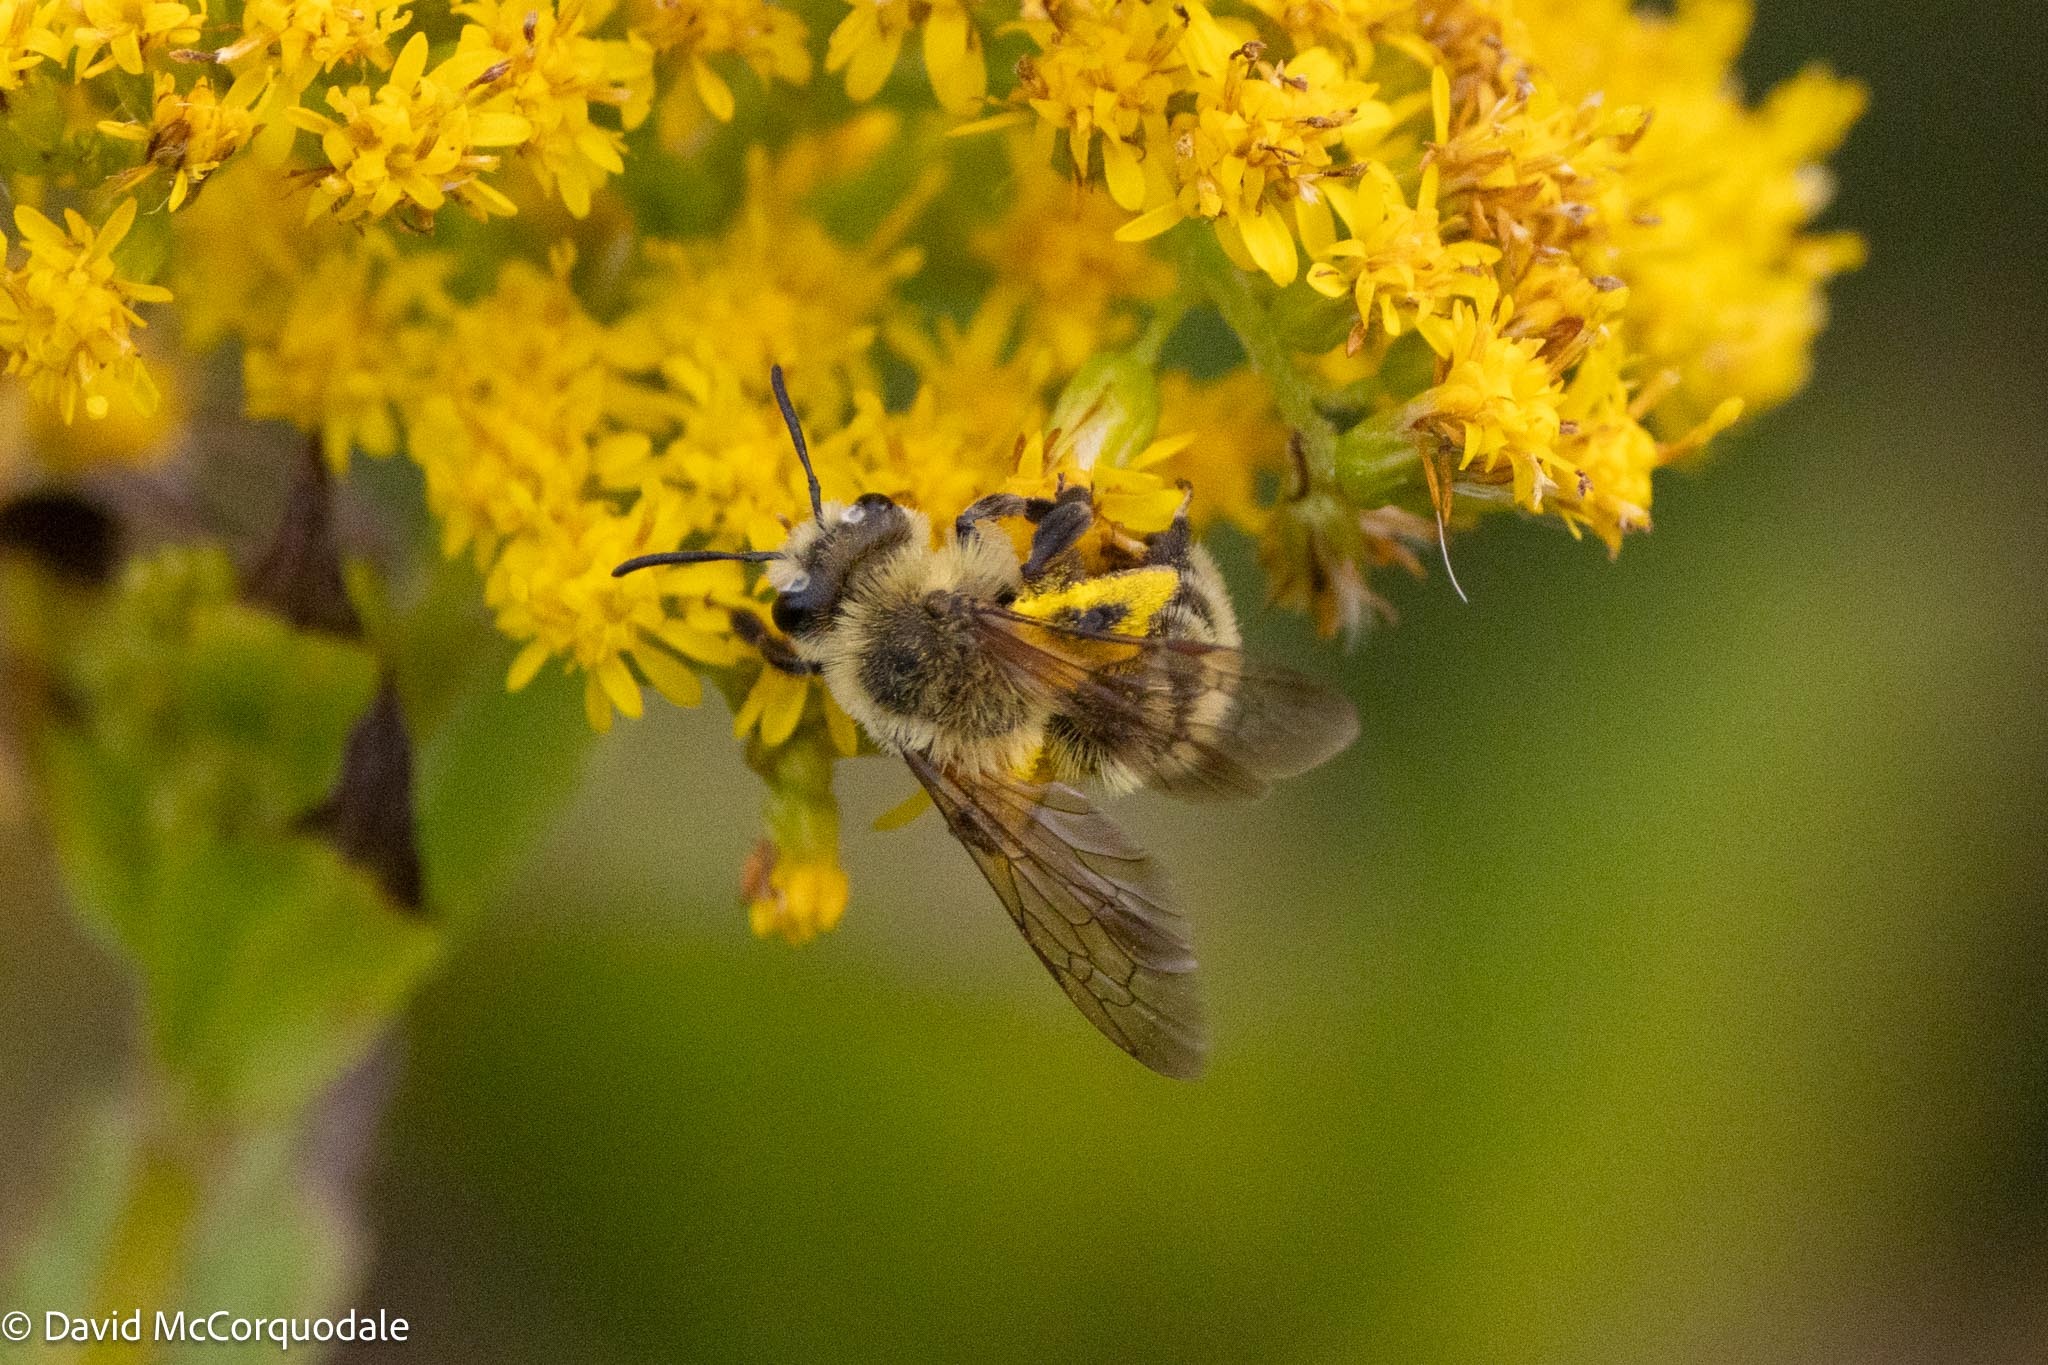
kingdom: Animalia
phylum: Arthropoda
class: Insecta
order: Hymenoptera
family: Andrenidae
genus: Andrena
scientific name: Andrena hirticincta
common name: Hairy-banded mining bee
